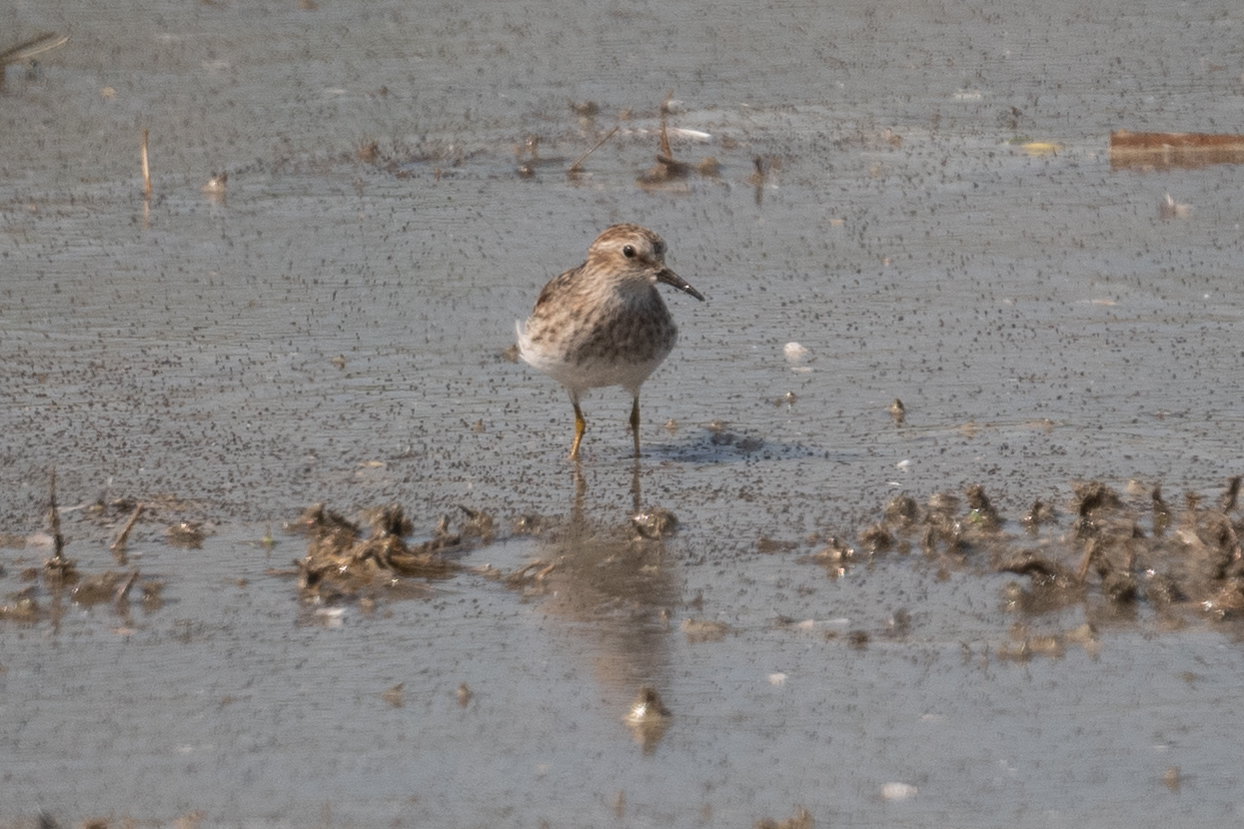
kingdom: Animalia
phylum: Chordata
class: Aves
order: Charadriiformes
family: Scolopacidae
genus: Calidris
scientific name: Calidris minutilla
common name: Least sandpiper
